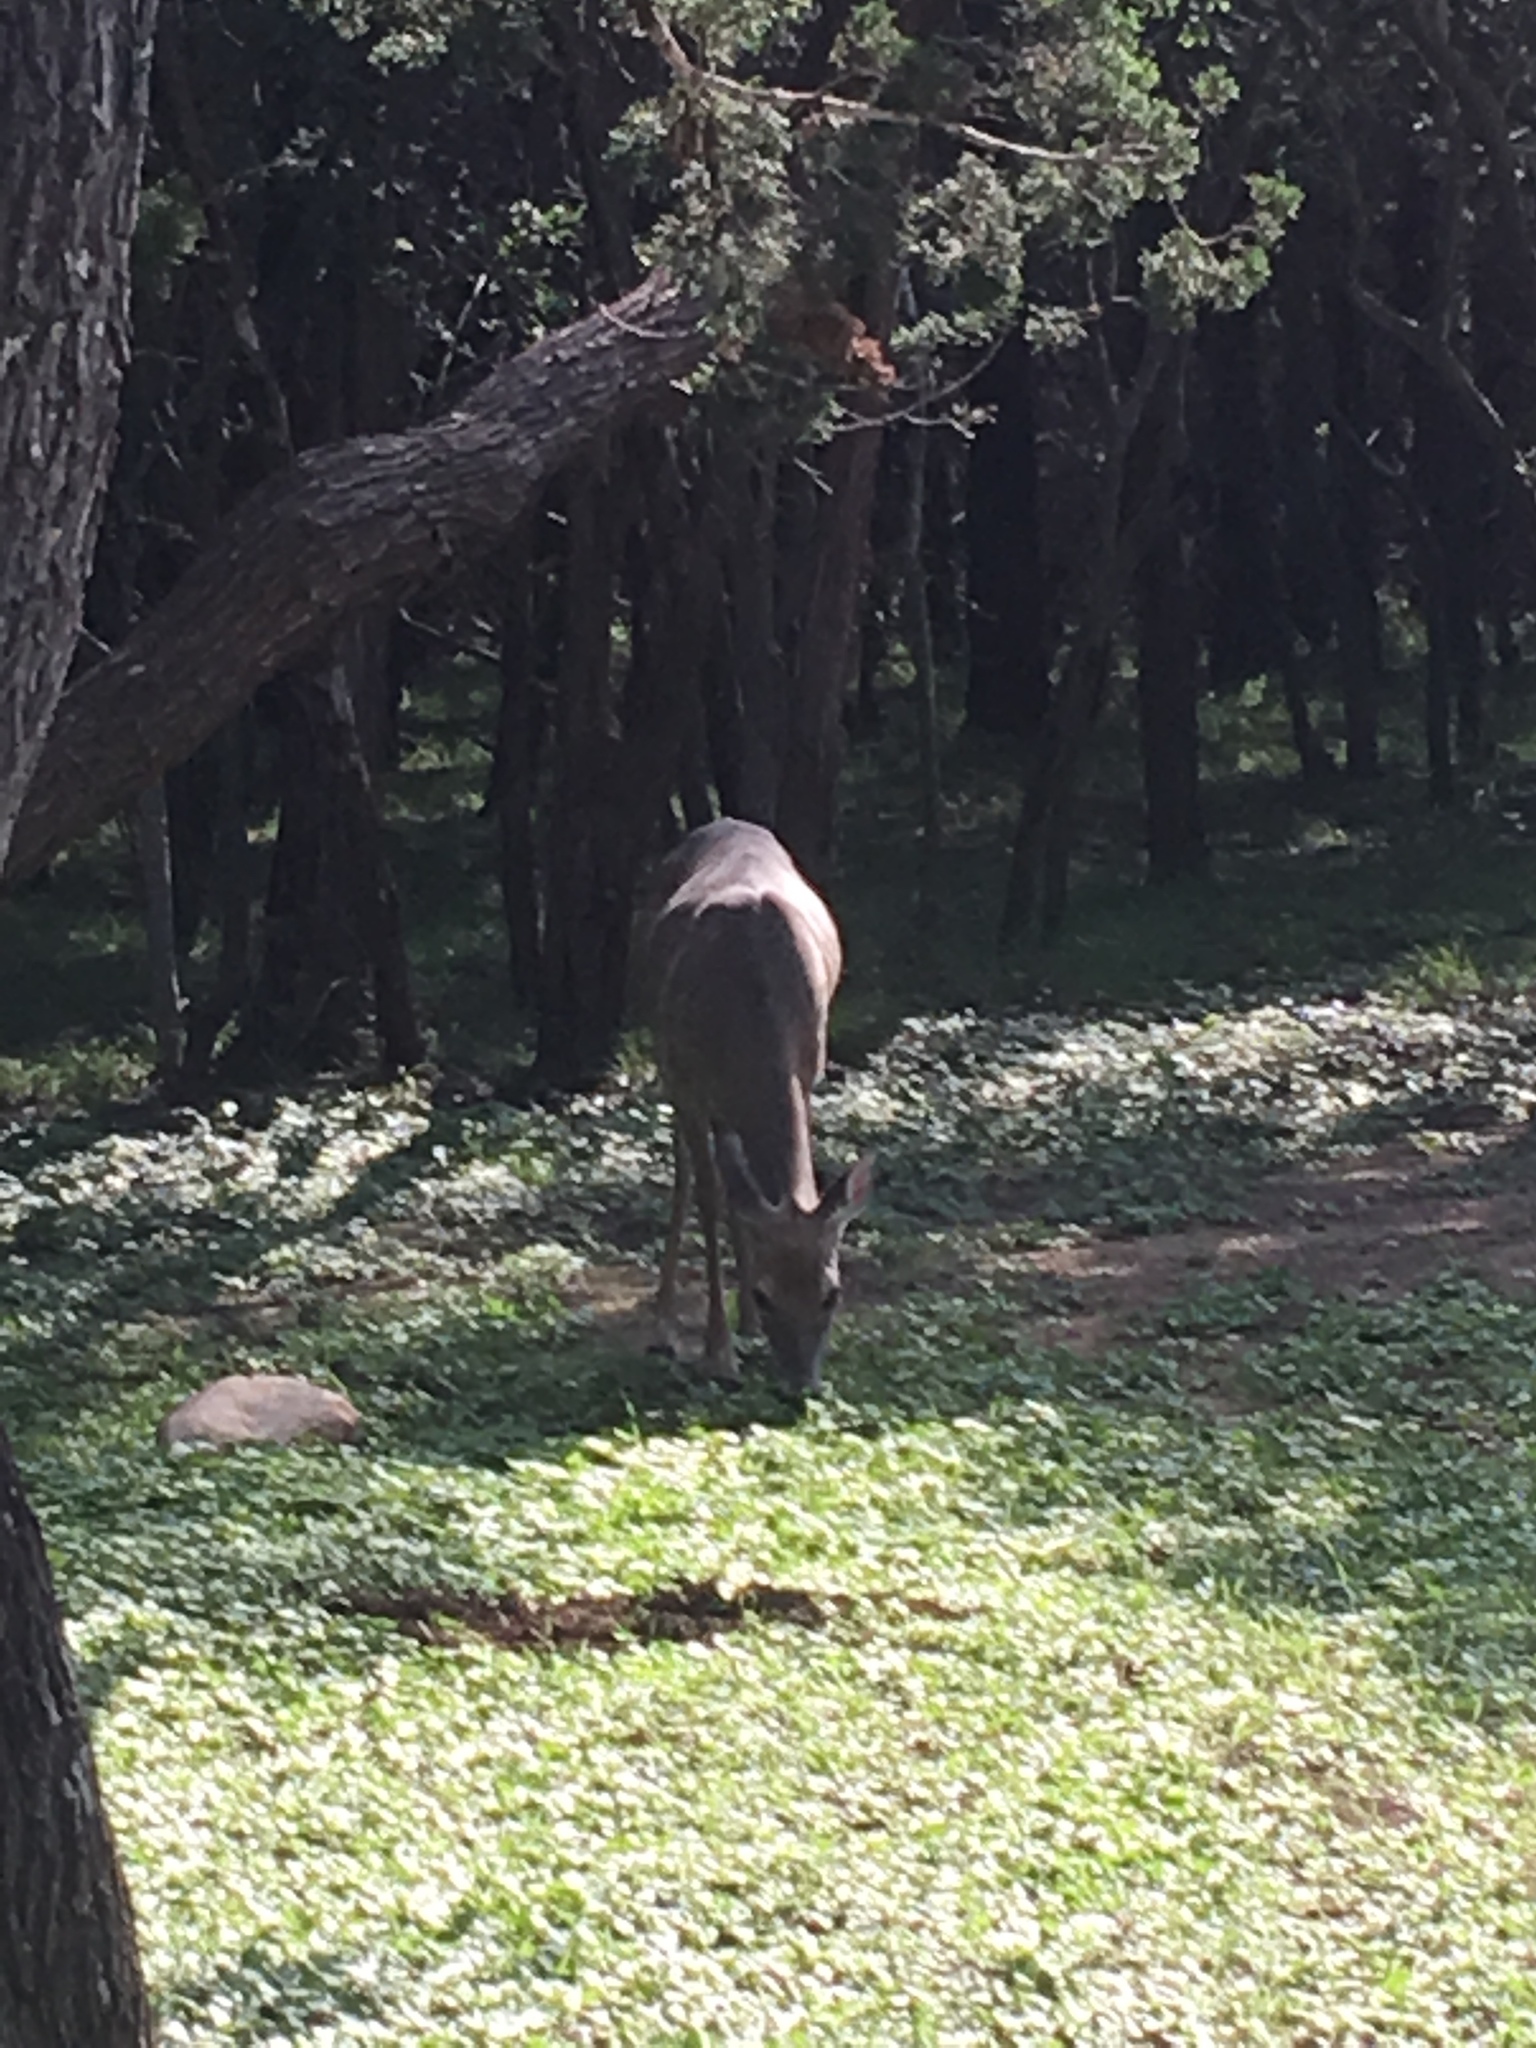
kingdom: Animalia
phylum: Chordata
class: Mammalia
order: Artiodactyla
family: Cervidae
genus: Odocoileus
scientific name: Odocoileus virginianus
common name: White-tailed deer
